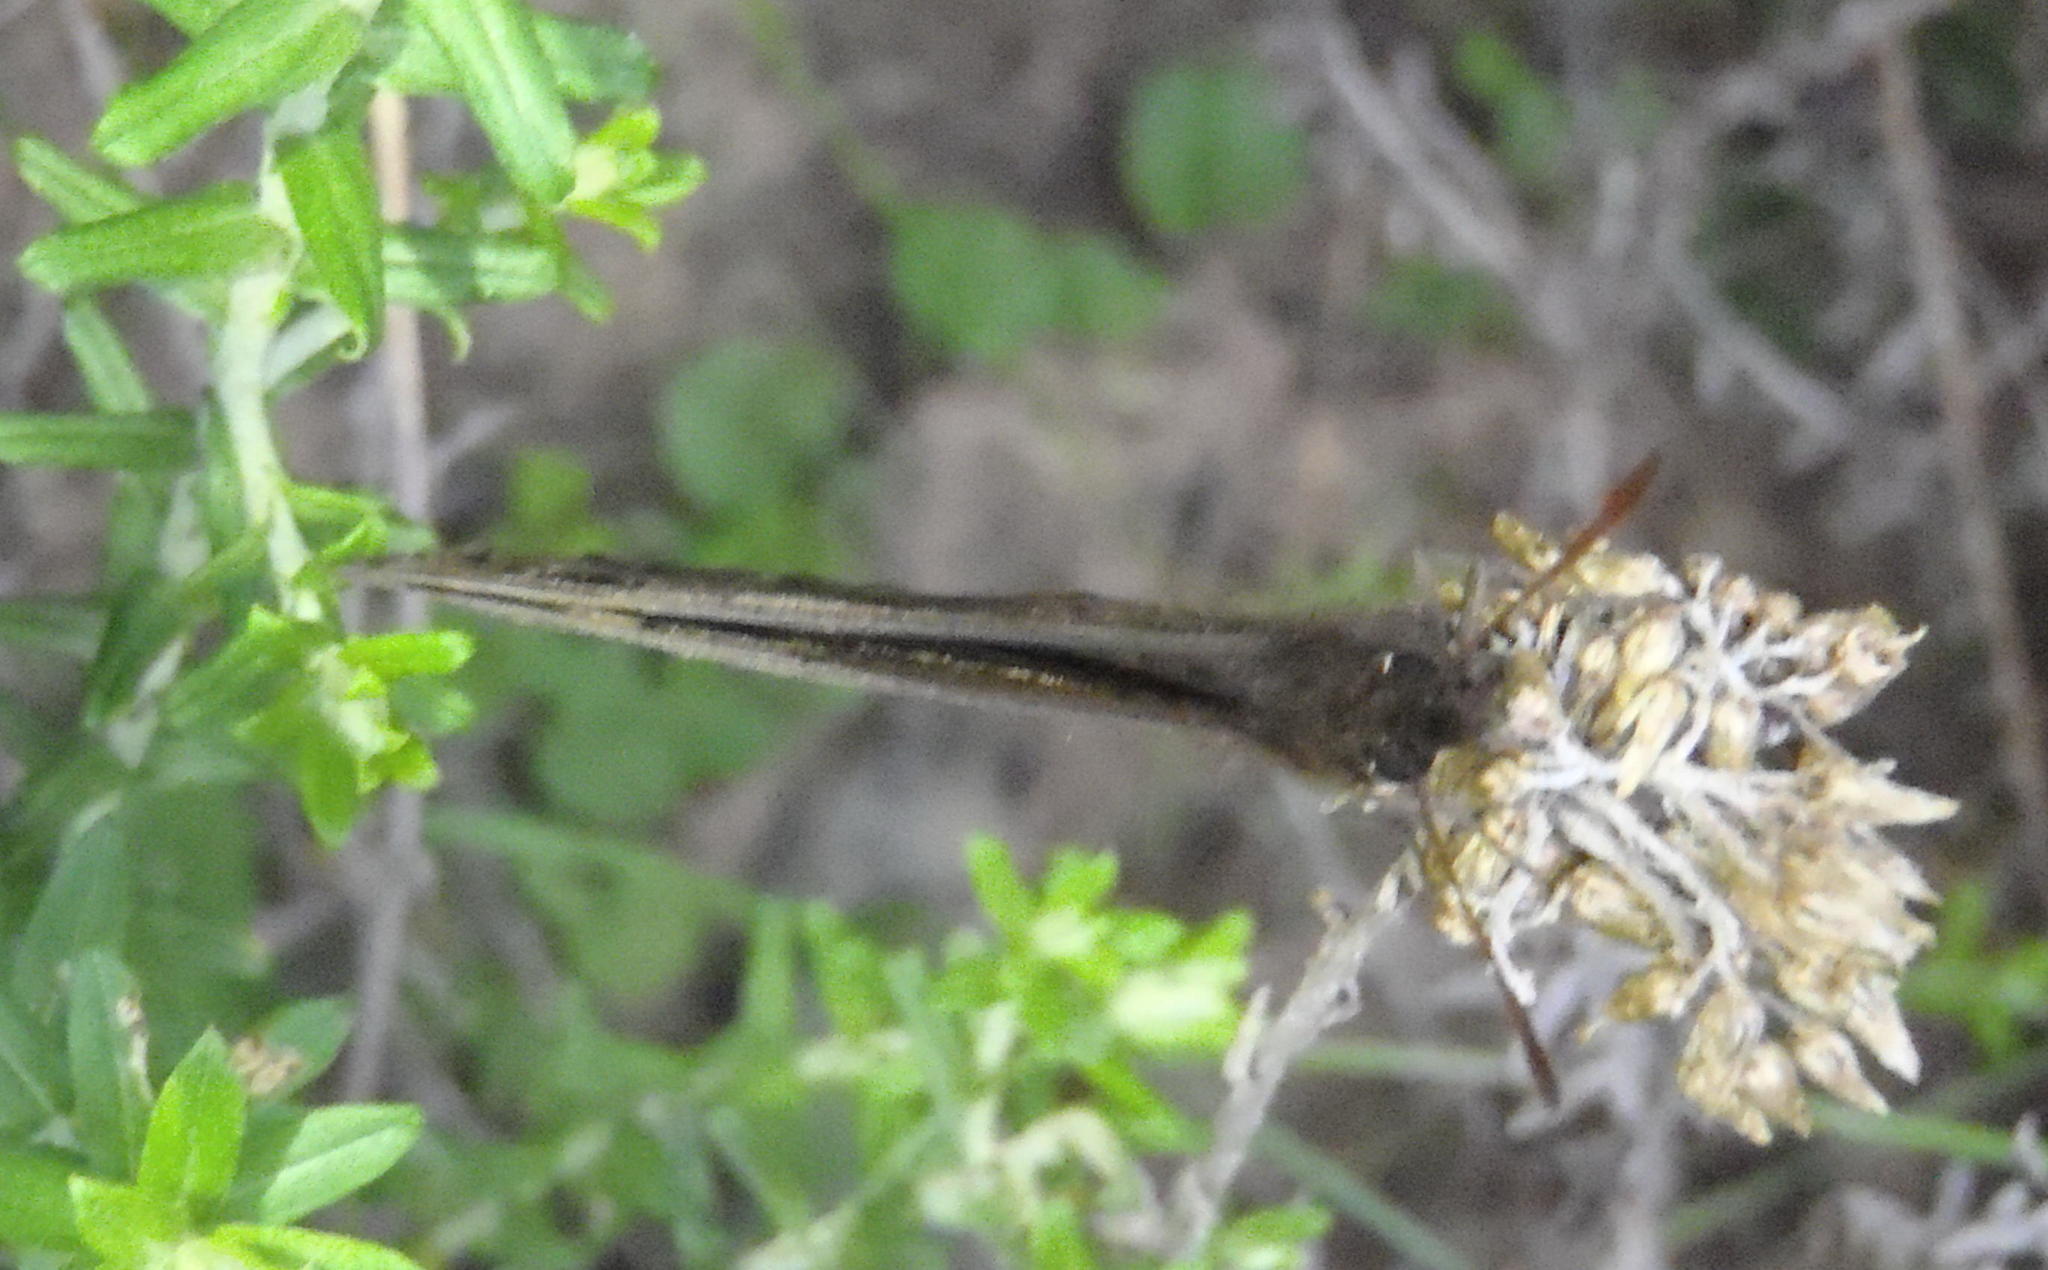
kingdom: Animalia
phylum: Arthropoda
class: Insecta
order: Lepidoptera
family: Nymphalidae
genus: Dira
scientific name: Dira clytus
